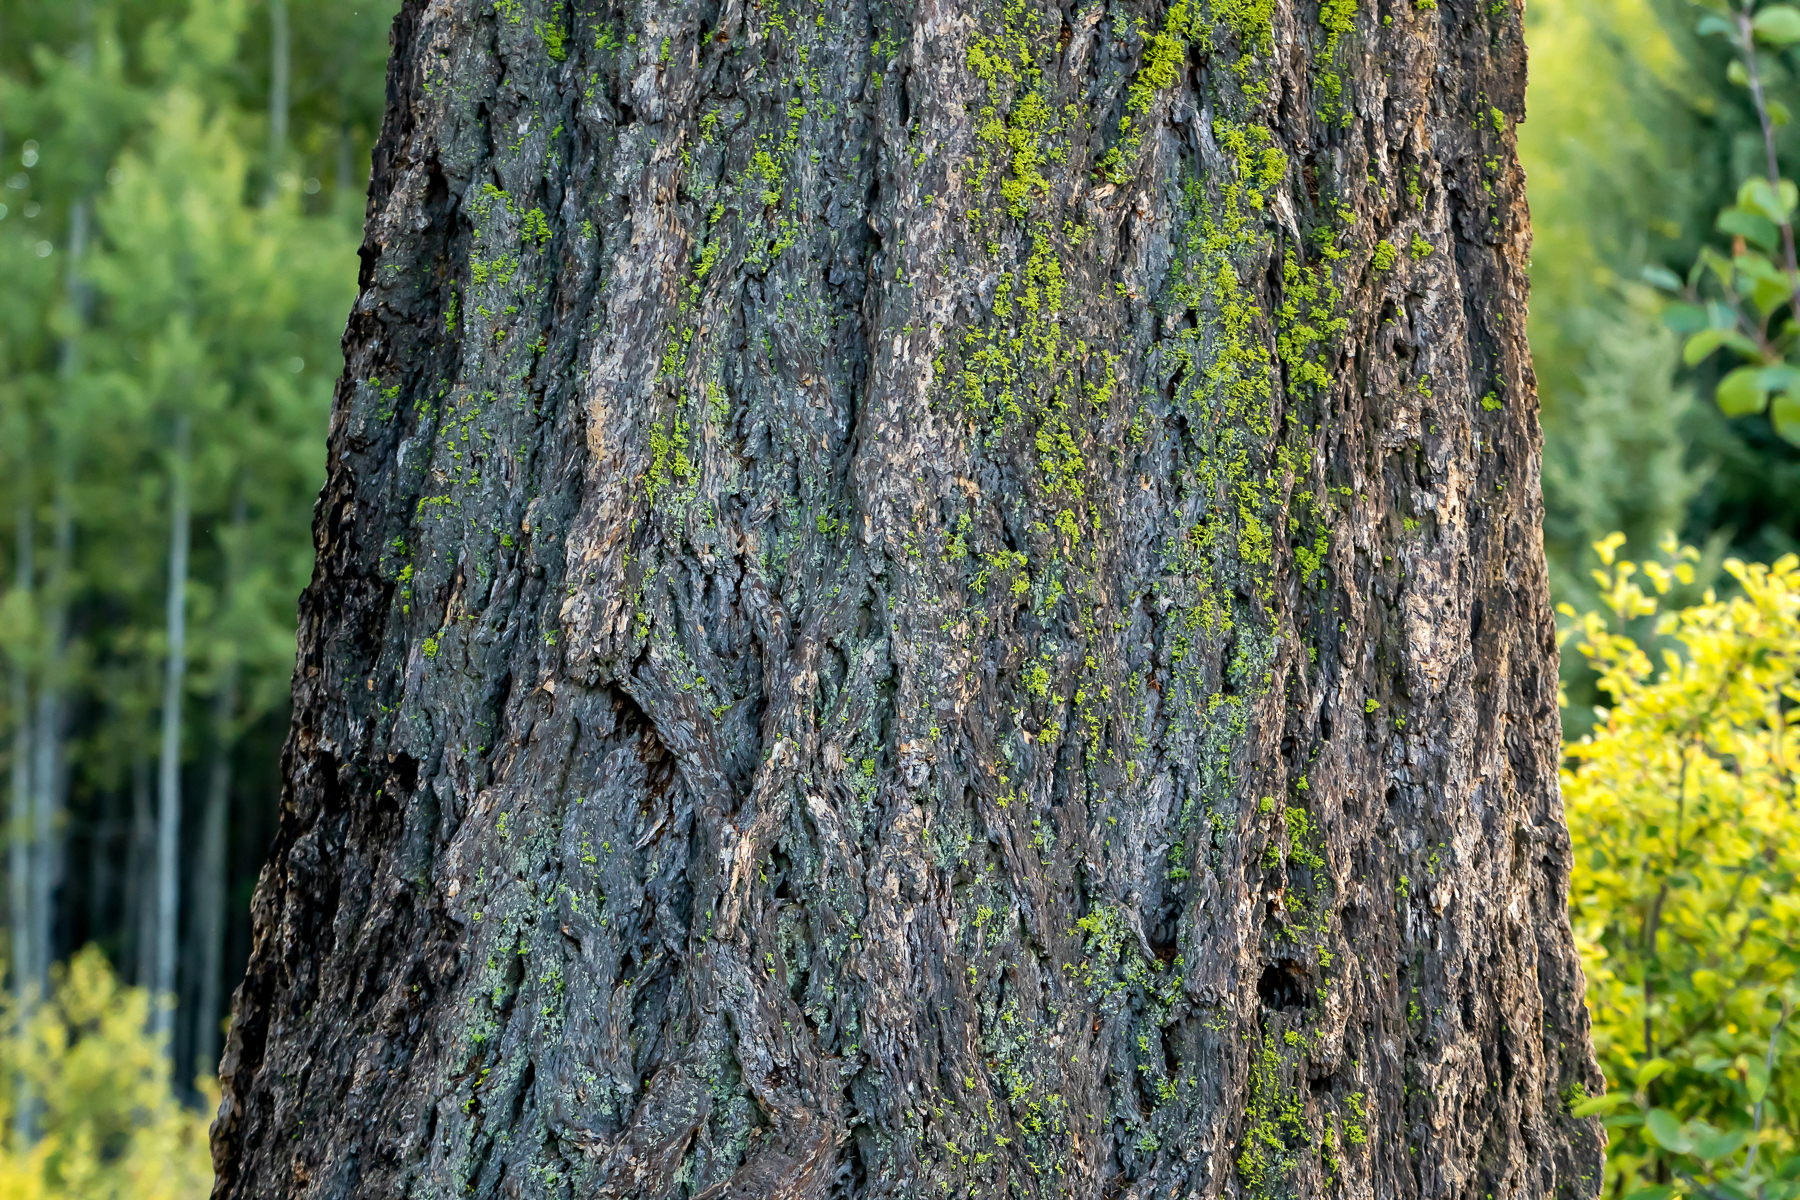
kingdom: Plantae
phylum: Tracheophyta
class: Pinopsida
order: Pinales
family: Pinaceae
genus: Pseudotsuga
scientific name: Pseudotsuga menziesii
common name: Douglas fir
